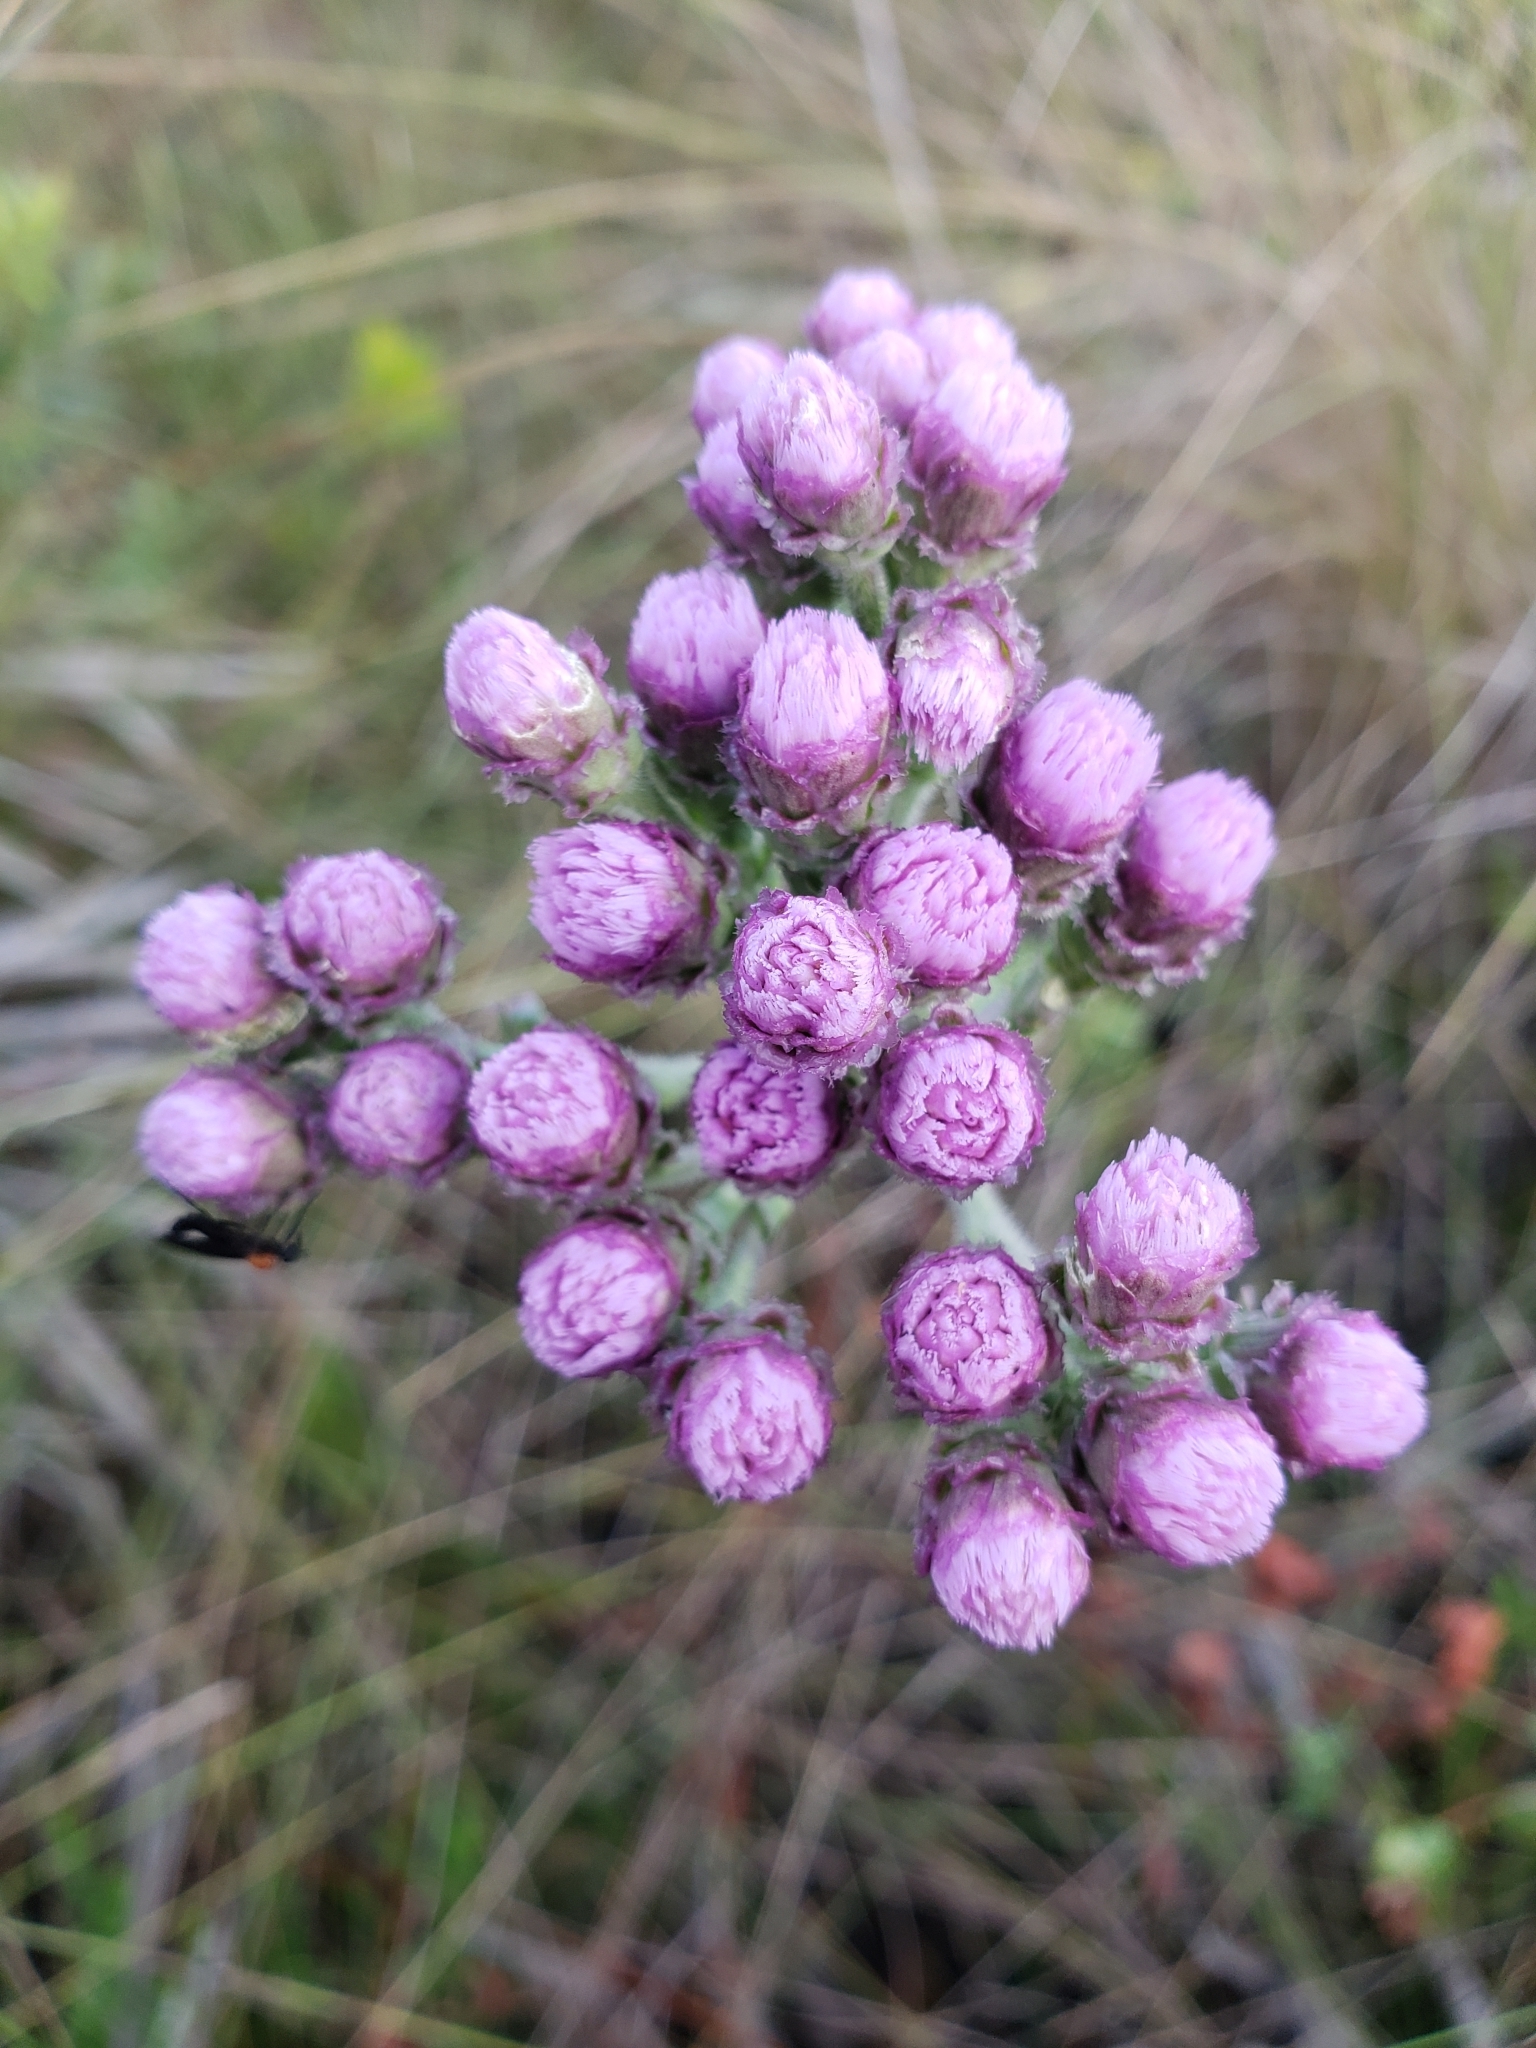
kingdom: Plantae
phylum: Tracheophyta
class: Magnoliopsida
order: Asterales
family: Asteraceae
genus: Carphephorus
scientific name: Carphephorus corymbosus
